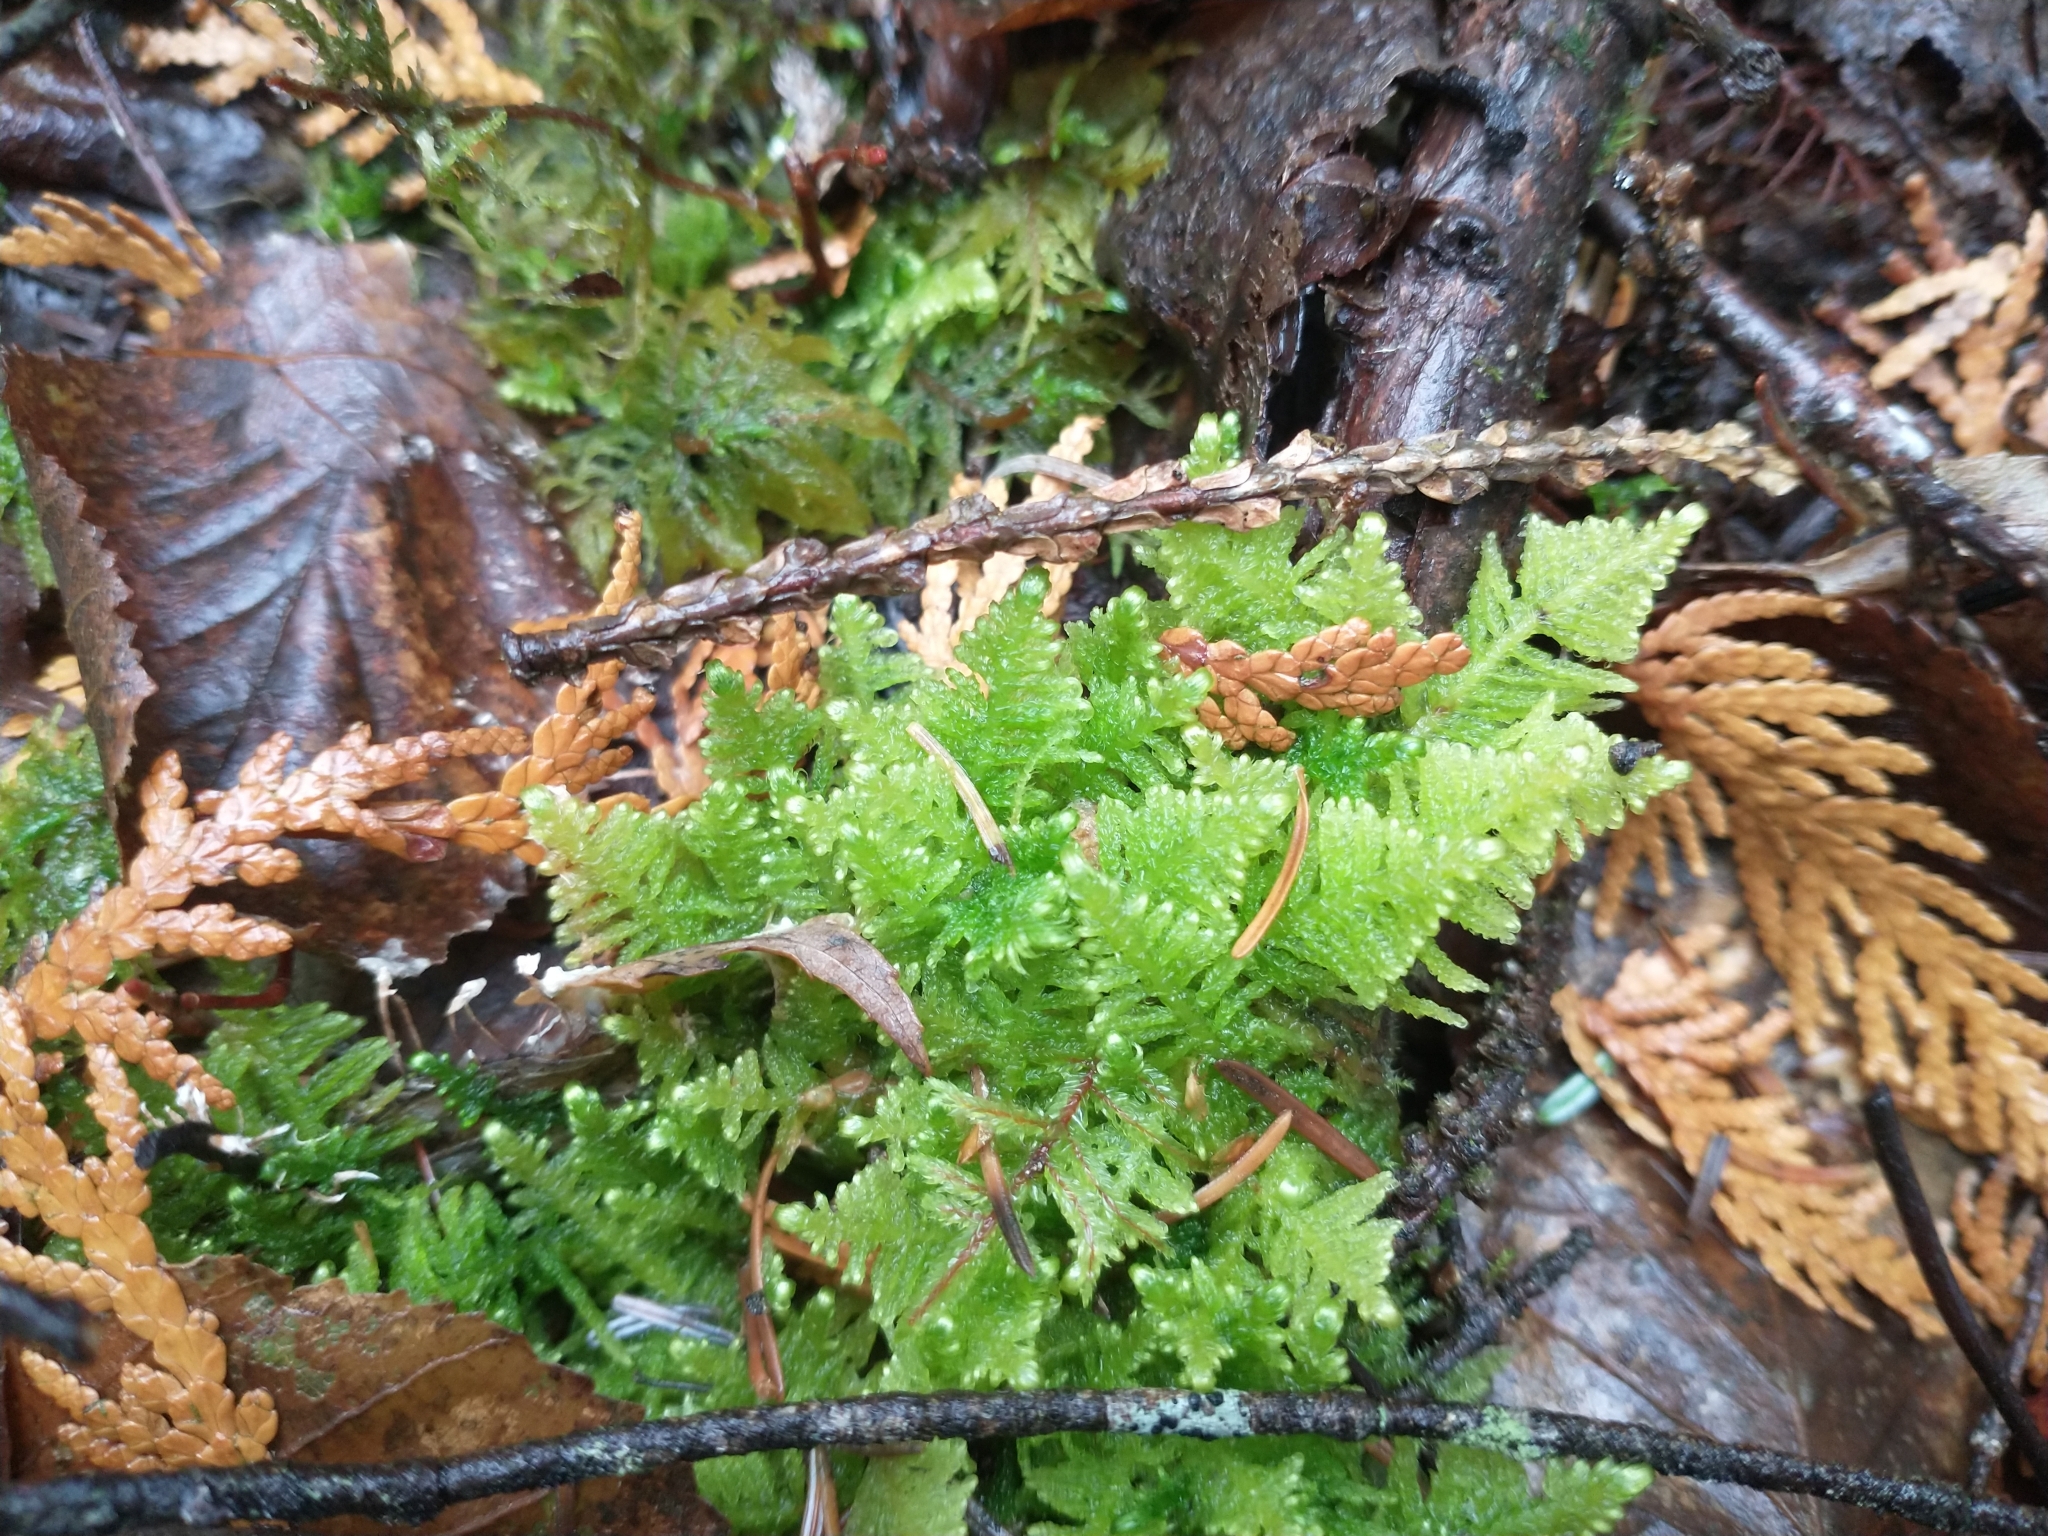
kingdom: Plantae
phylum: Bryophyta
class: Bryopsida
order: Hypnales
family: Pylaisiaceae
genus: Ptilium
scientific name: Ptilium crista-castrensis
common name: Knight's plume moss
